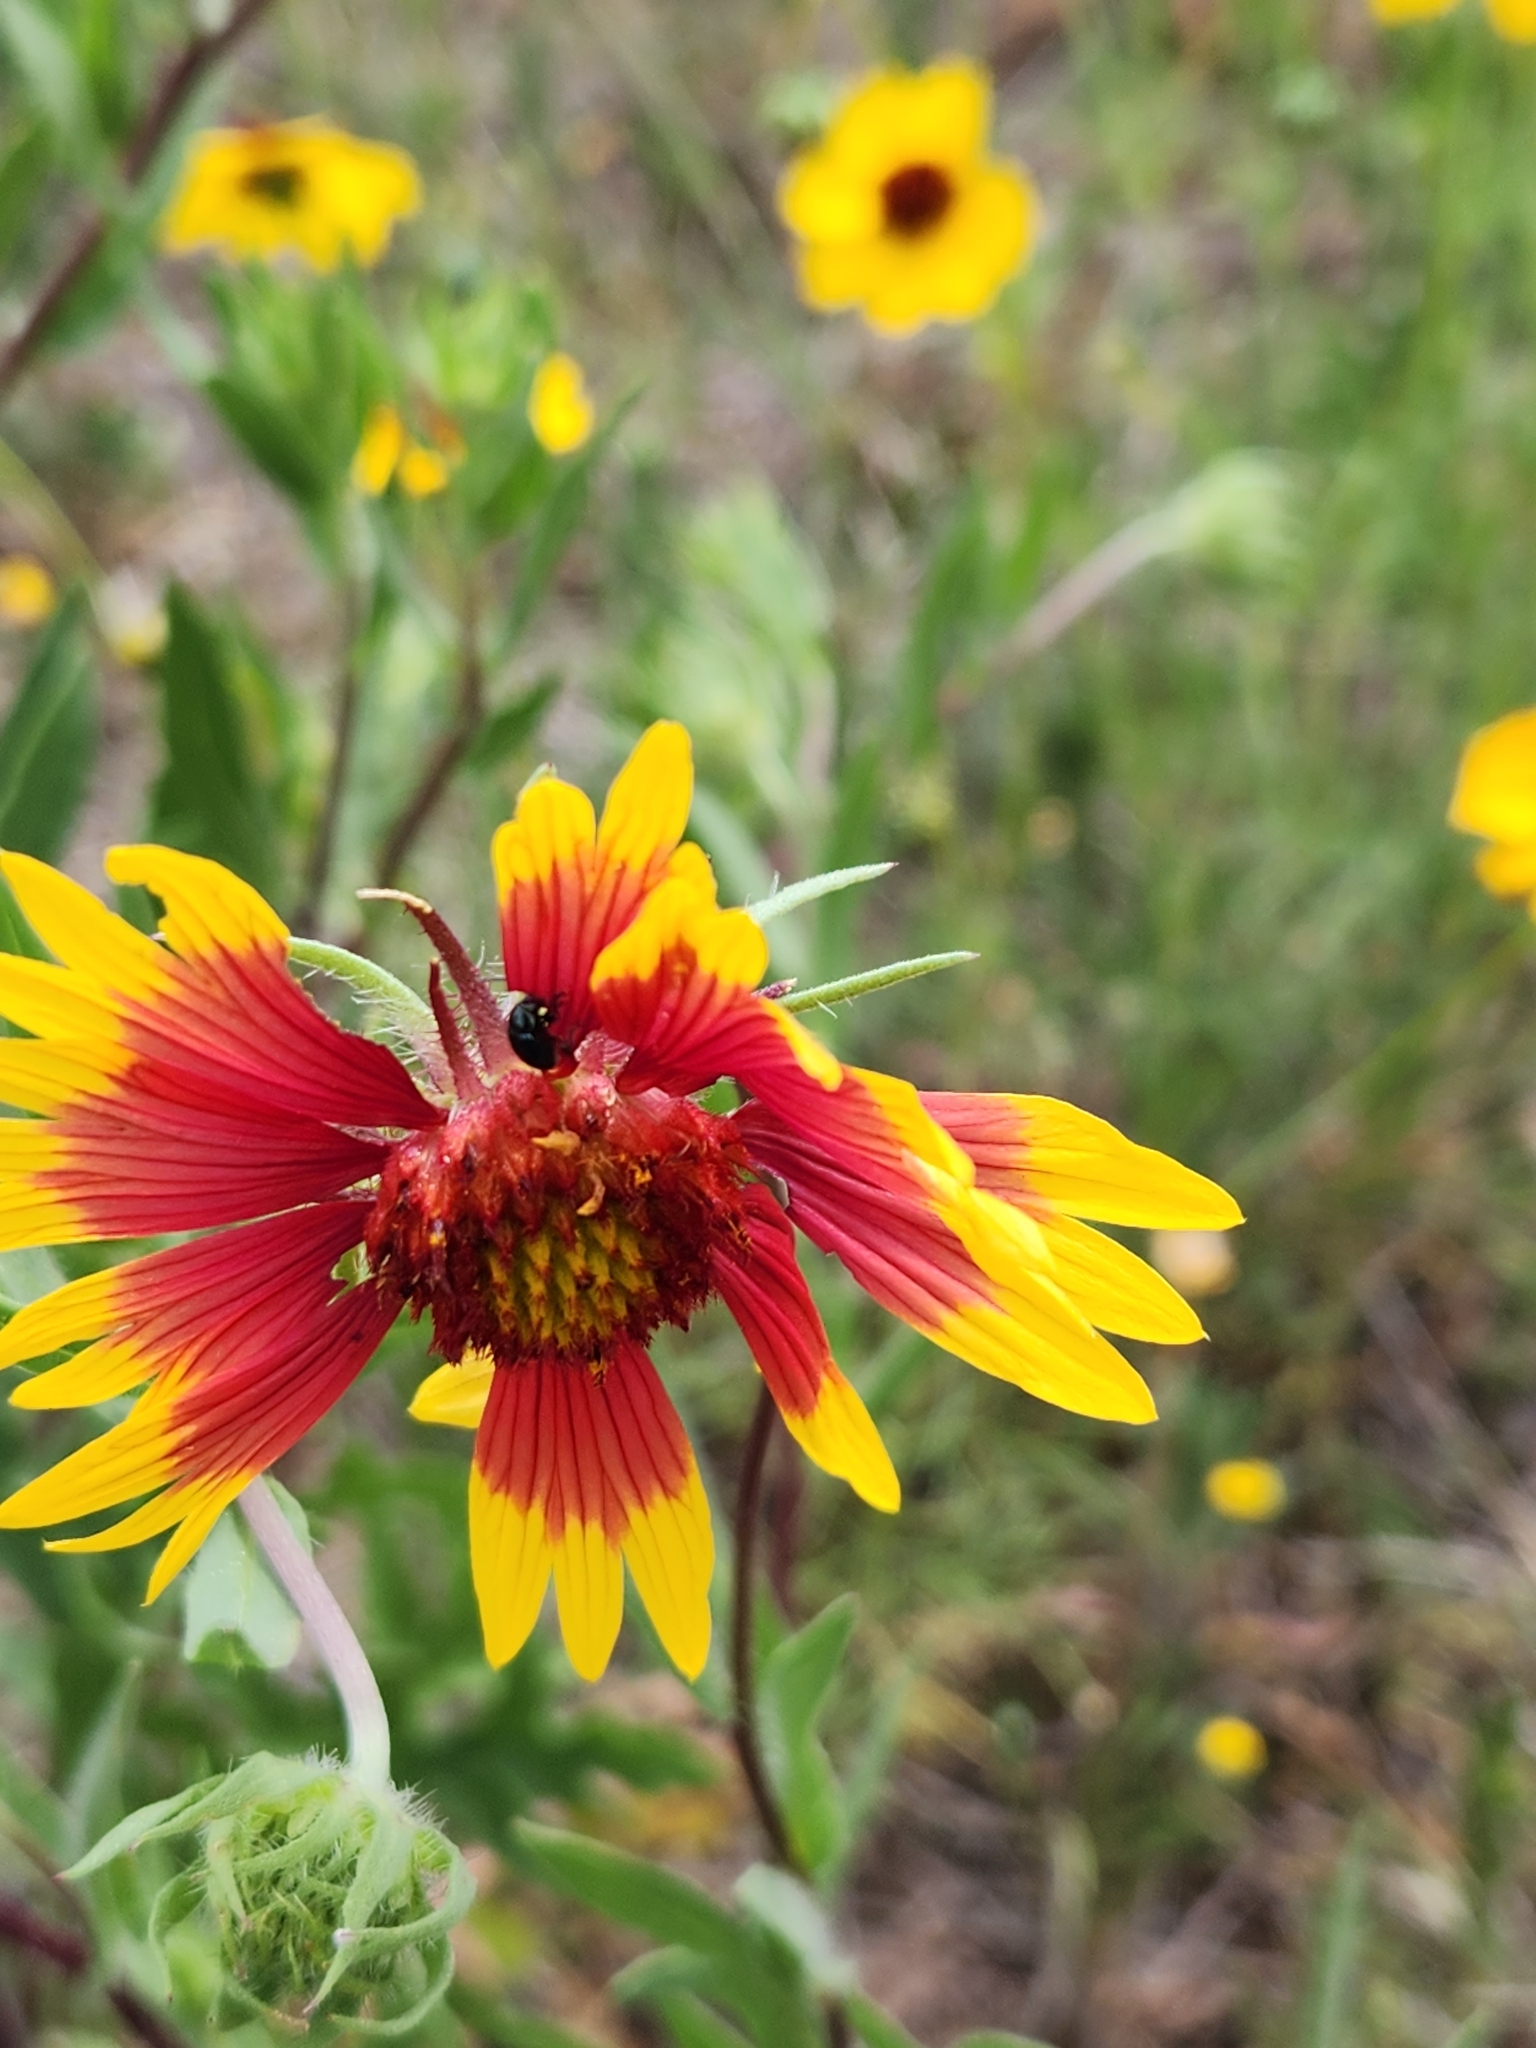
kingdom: Plantae
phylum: Tracheophyta
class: Magnoliopsida
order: Asterales
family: Asteraceae
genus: Gaillardia
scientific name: Gaillardia pulchella
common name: Firewheel
